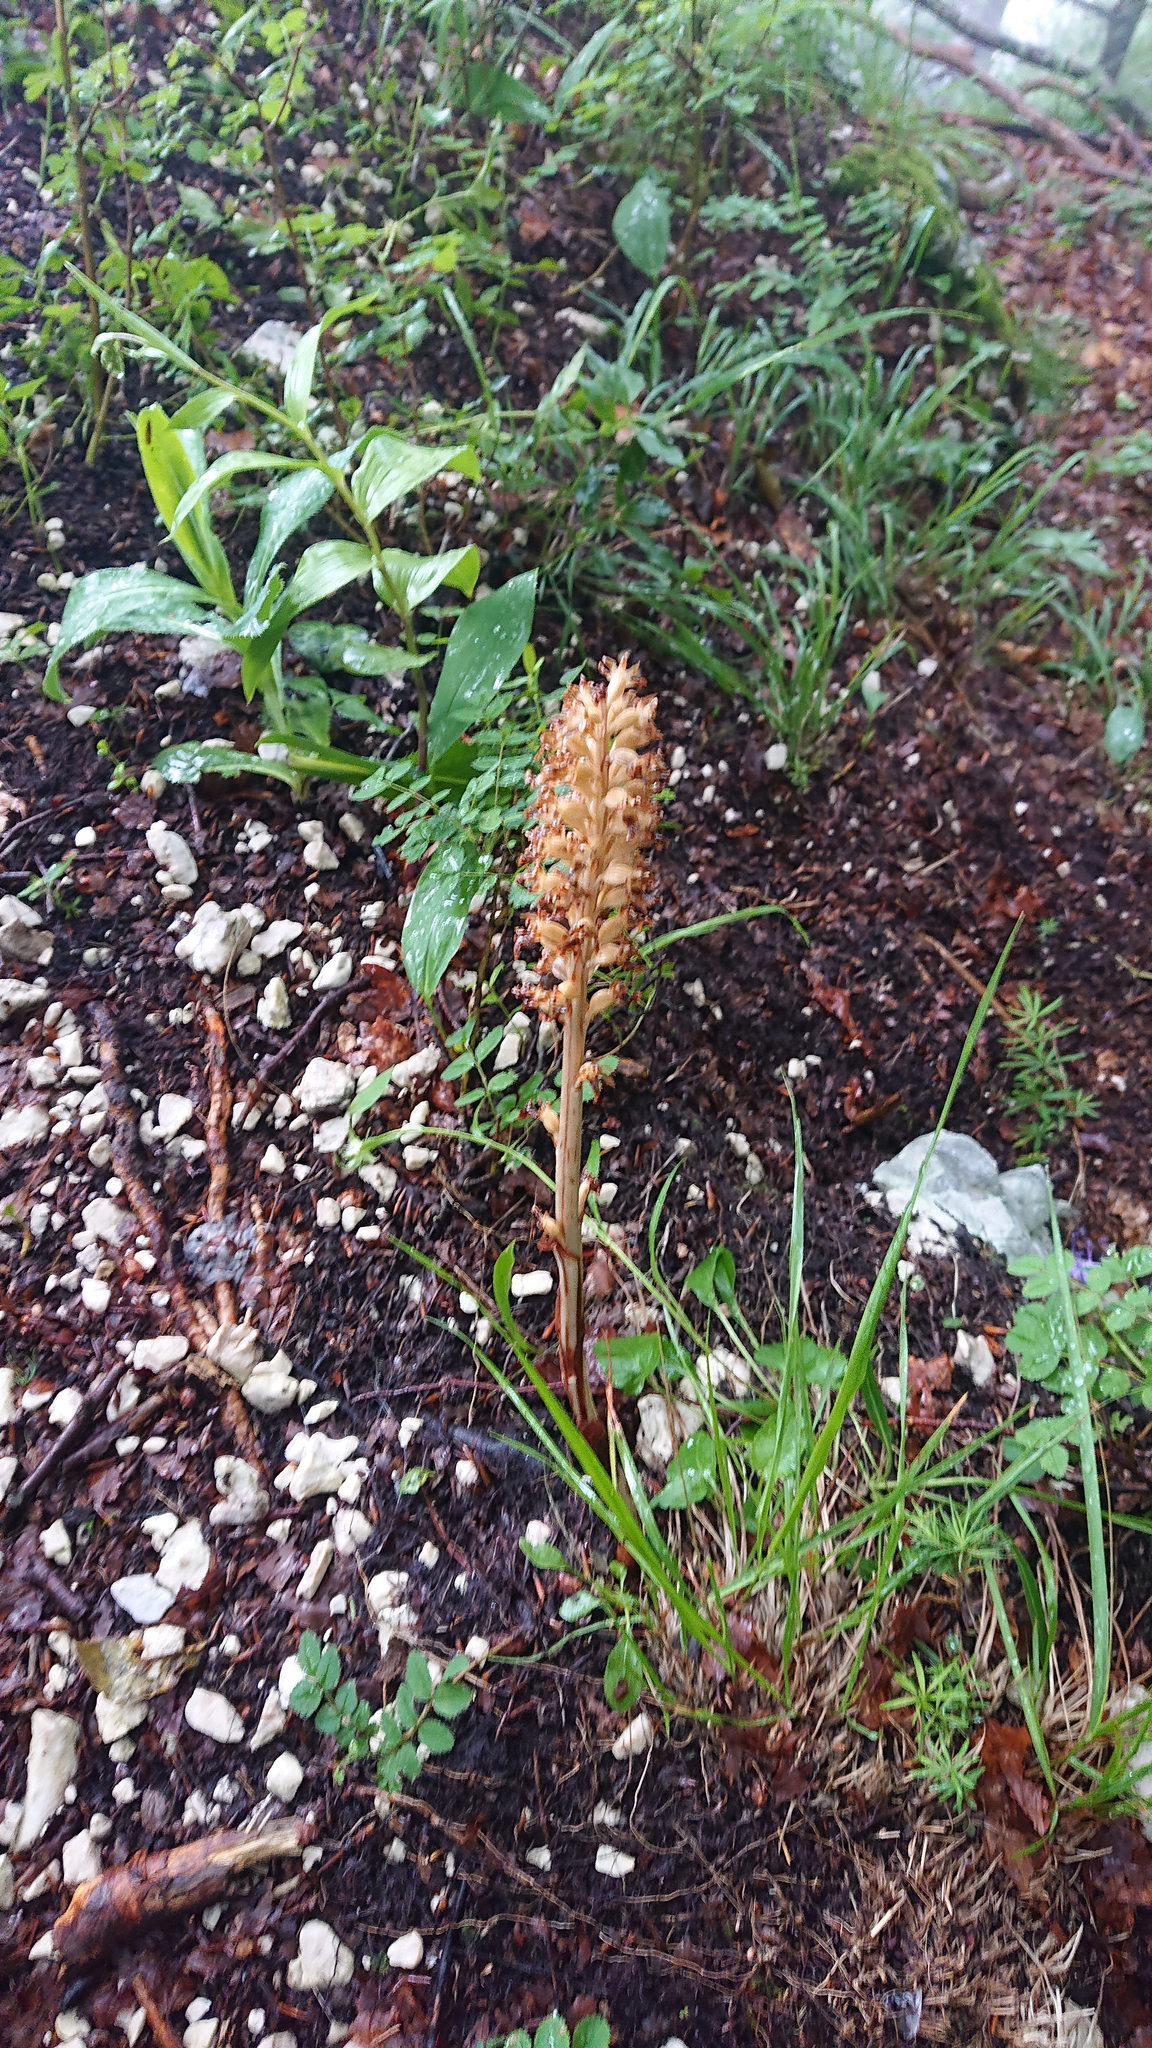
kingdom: Plantae
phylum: Tracheophyta
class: Liliopsida
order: Asparagales
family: Orchidaceae
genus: Neottia
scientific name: Neottia nidus-avis
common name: Bird's-nest orchid
